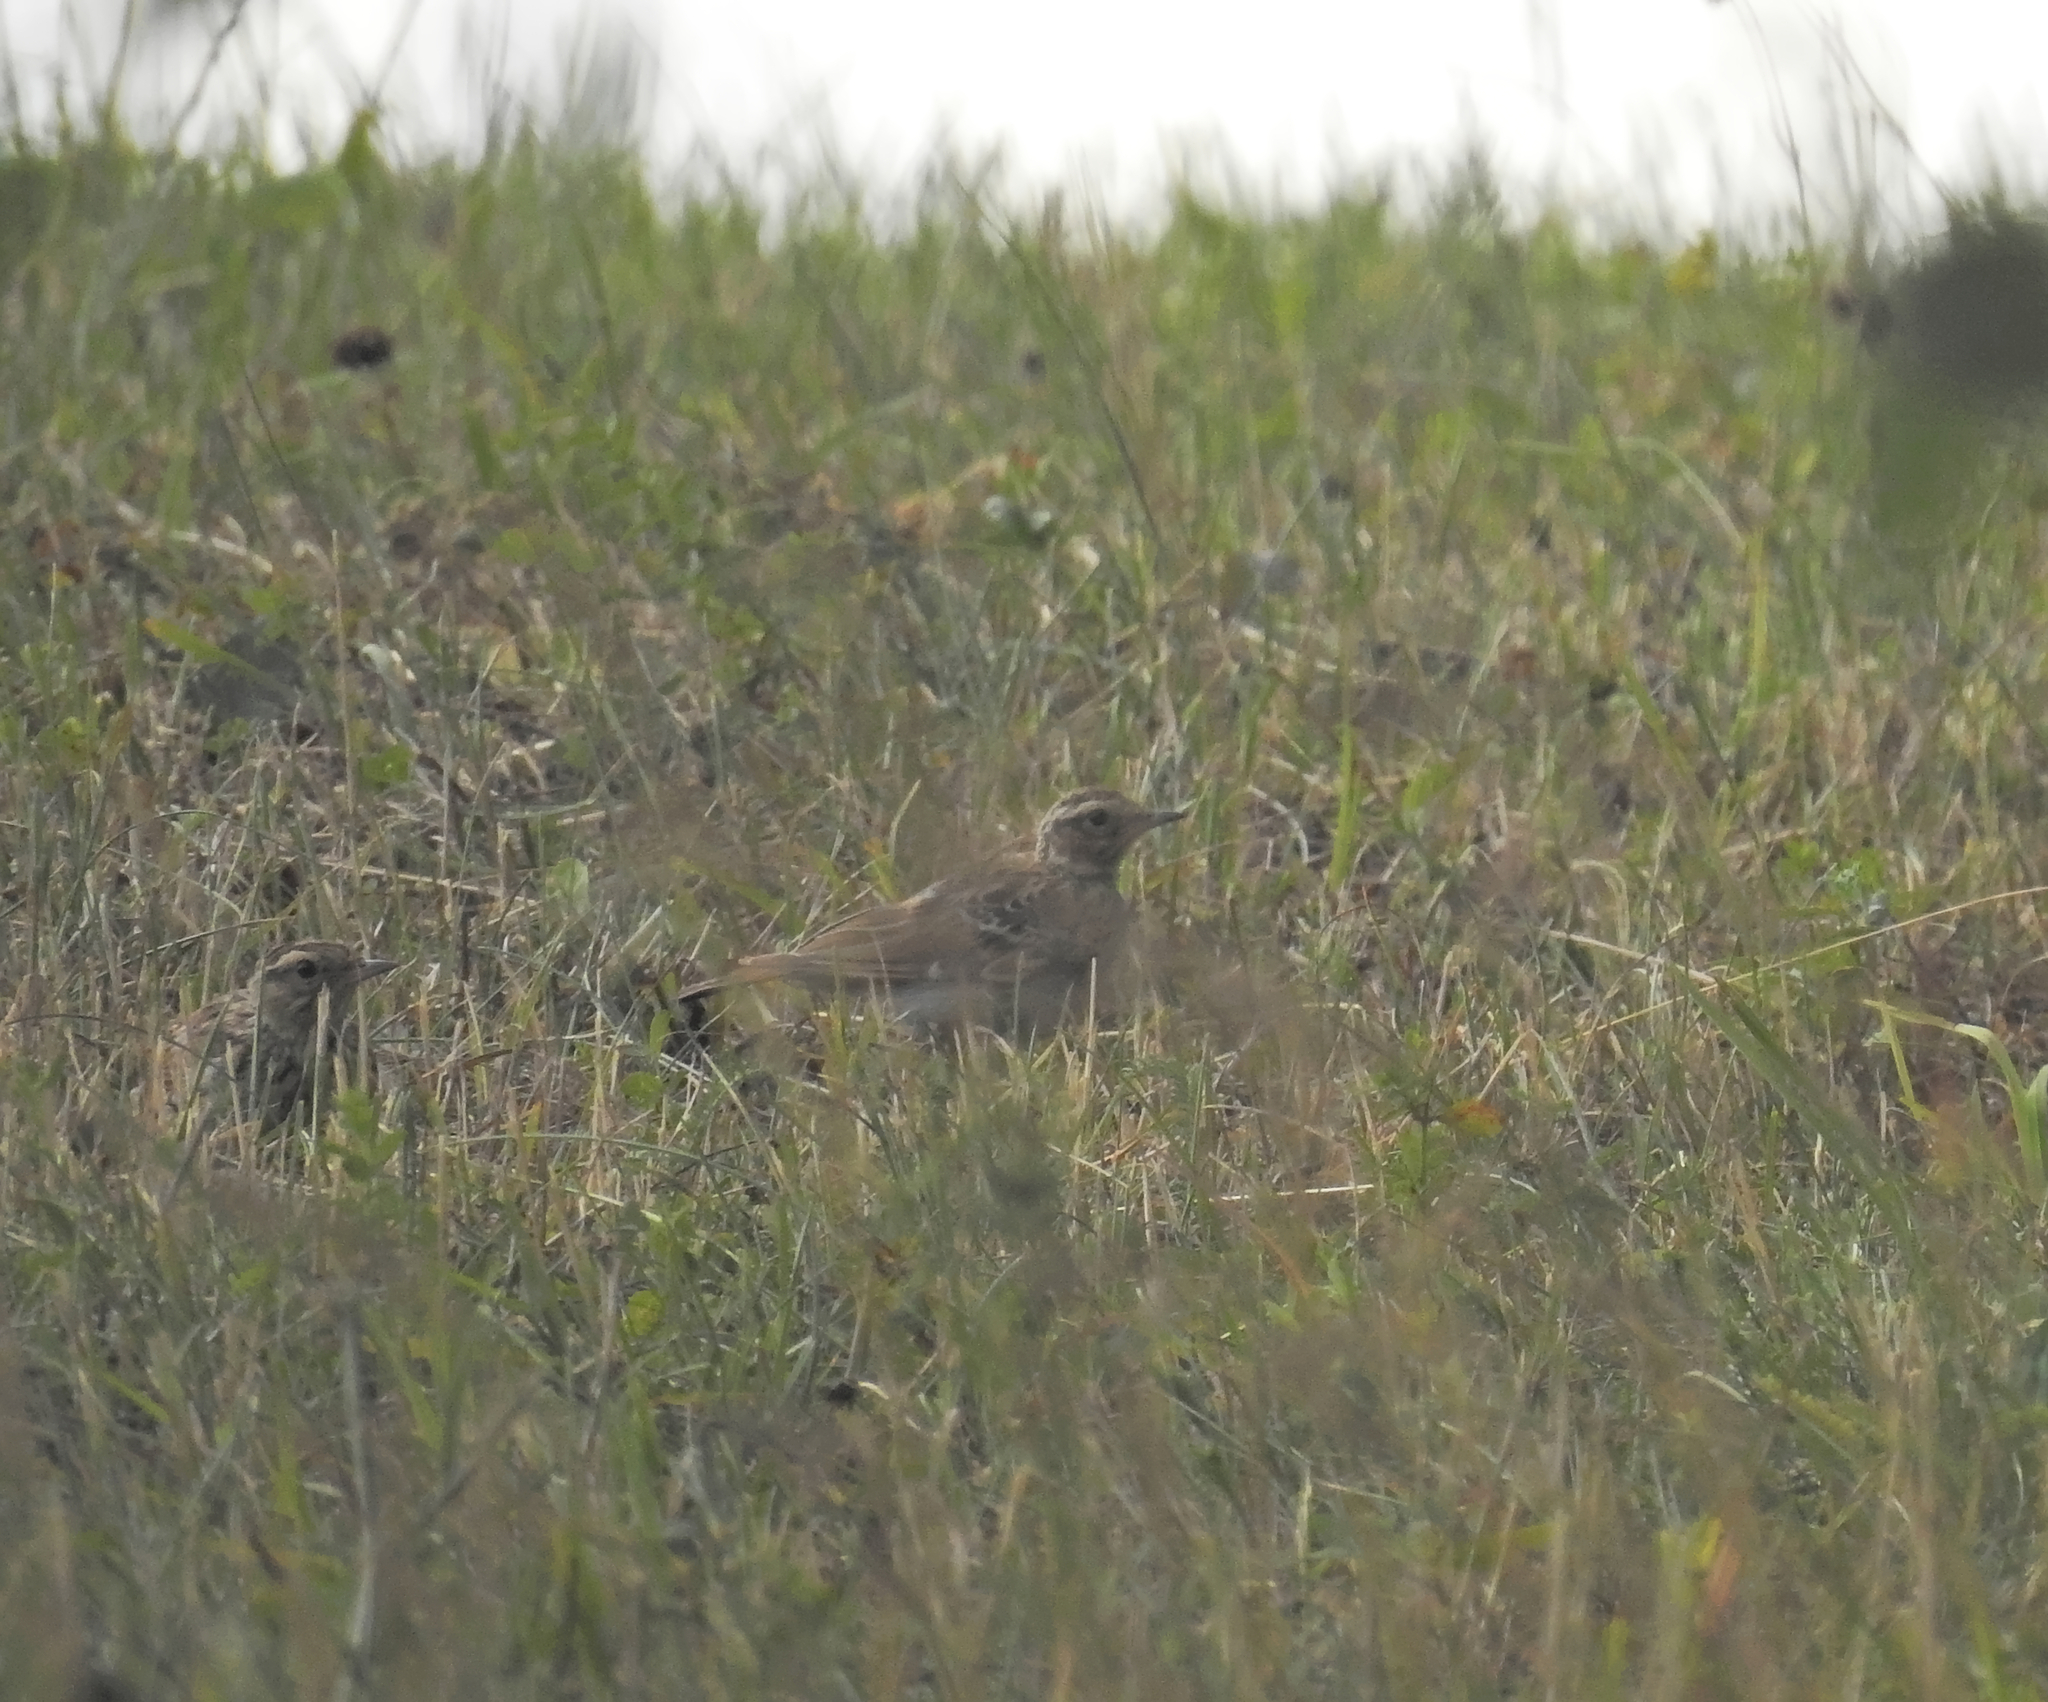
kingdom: Animalia
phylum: Chordata
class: Aves
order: Passeriformes
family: Alaudidae
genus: Alauda
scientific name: Alauda arvensis
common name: Eurasian skylark
